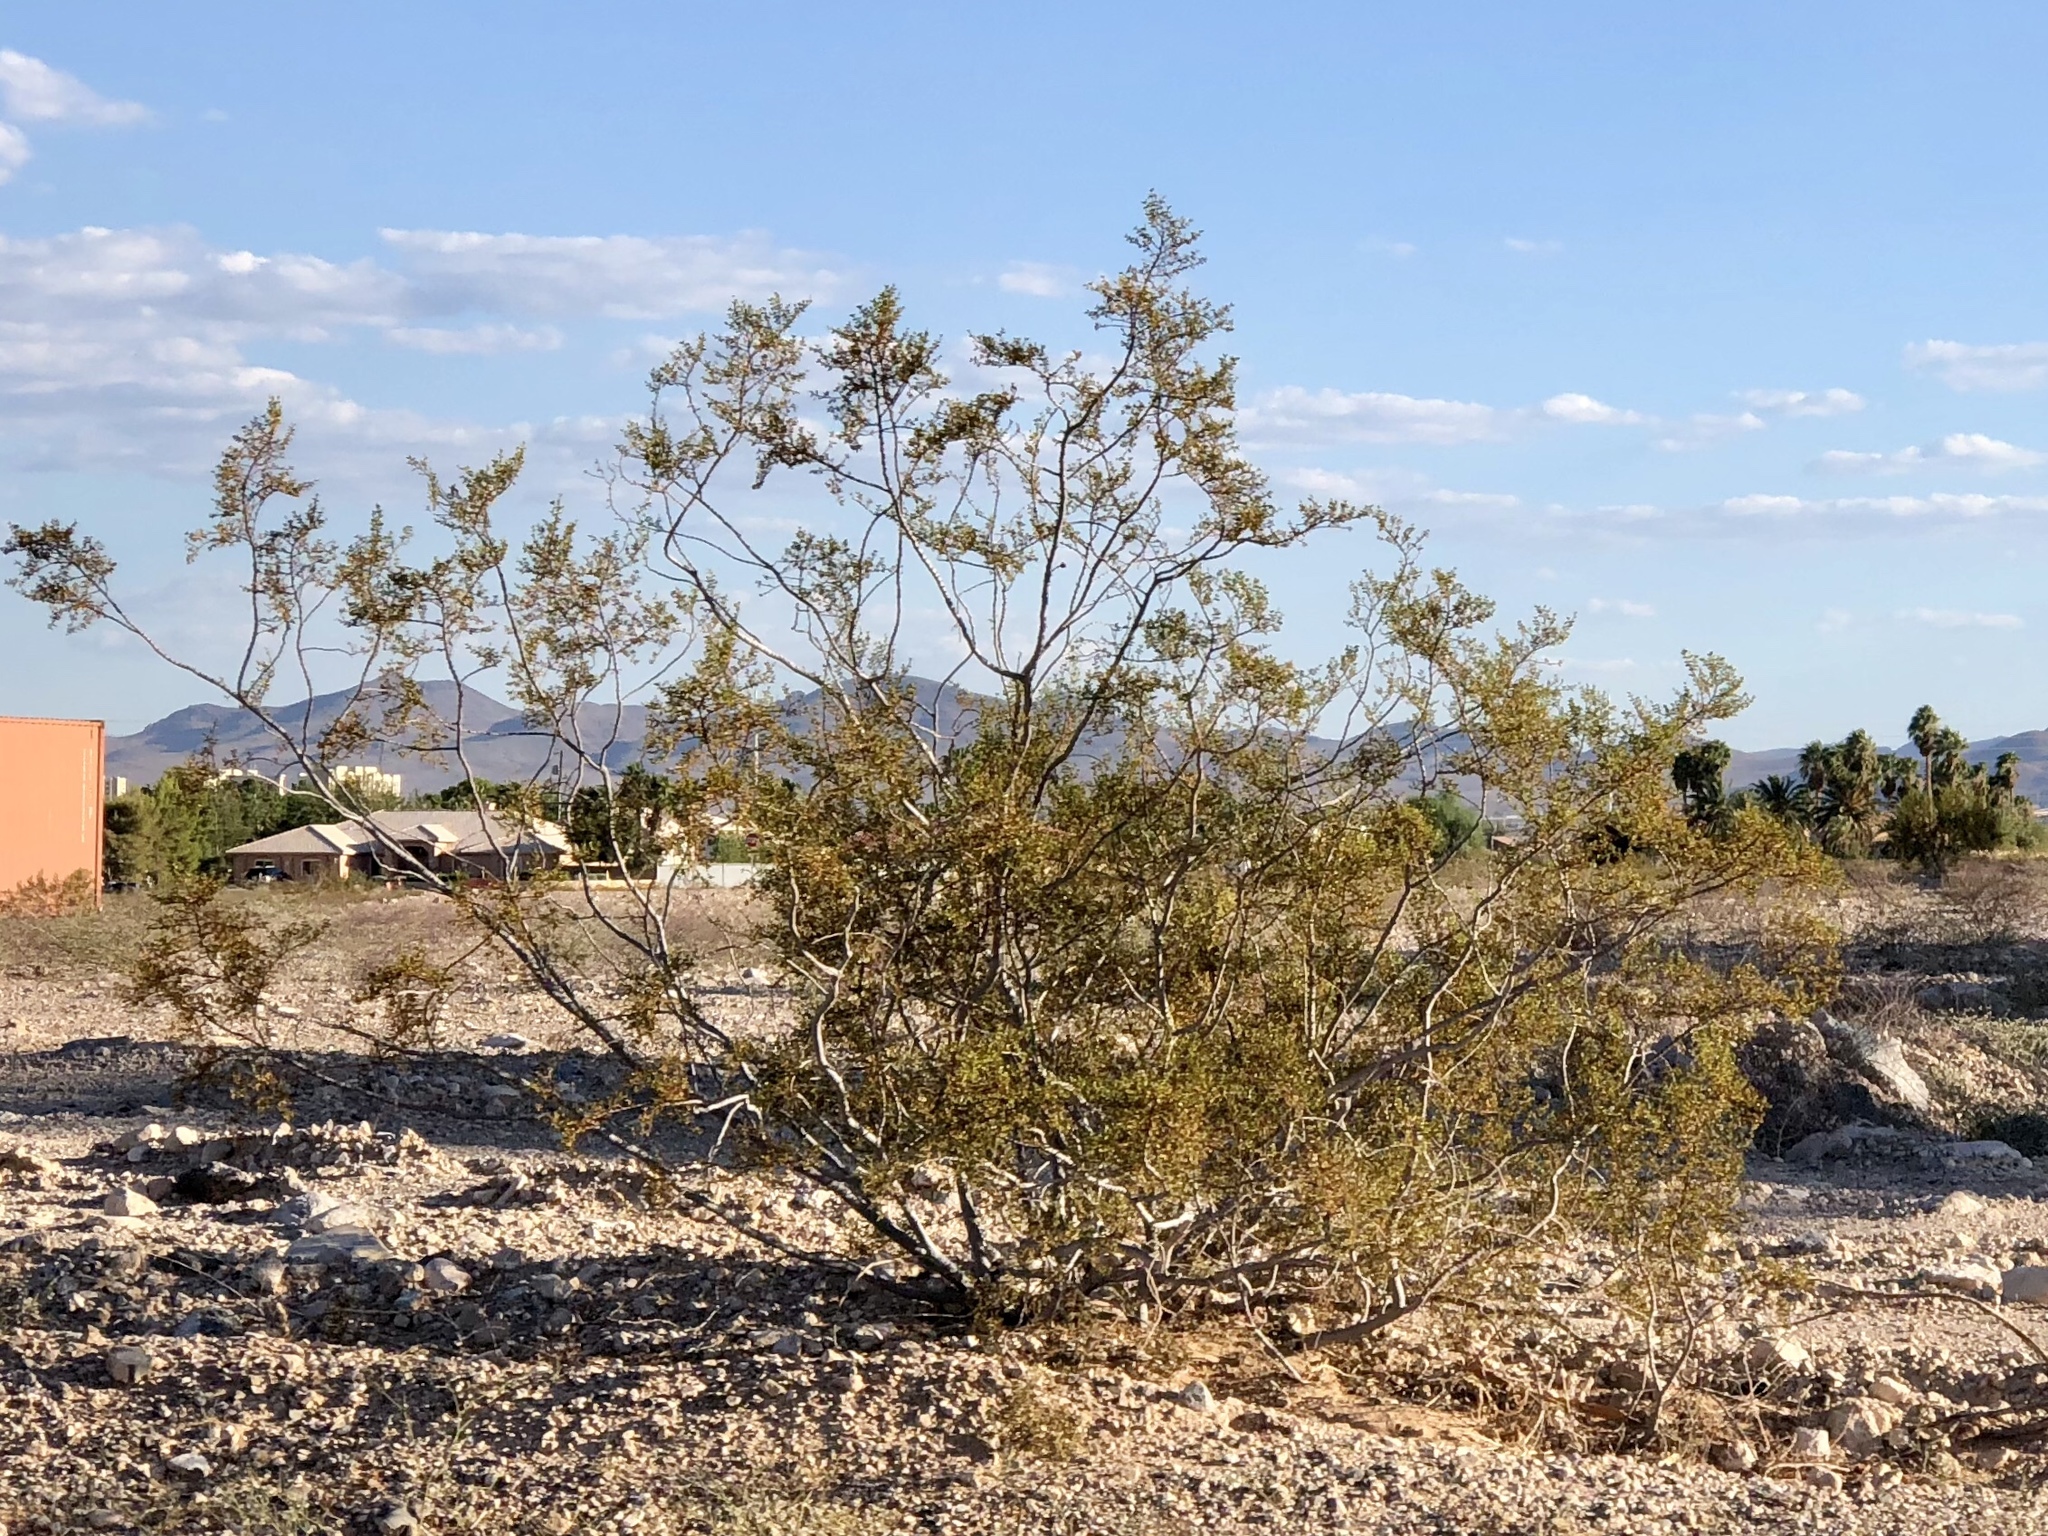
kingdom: Plantae
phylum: Tracheophyta
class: Magnoliopsida
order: Zygophyllales
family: Zygophyllaceae
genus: Larrea
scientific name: Larrea tridentata
